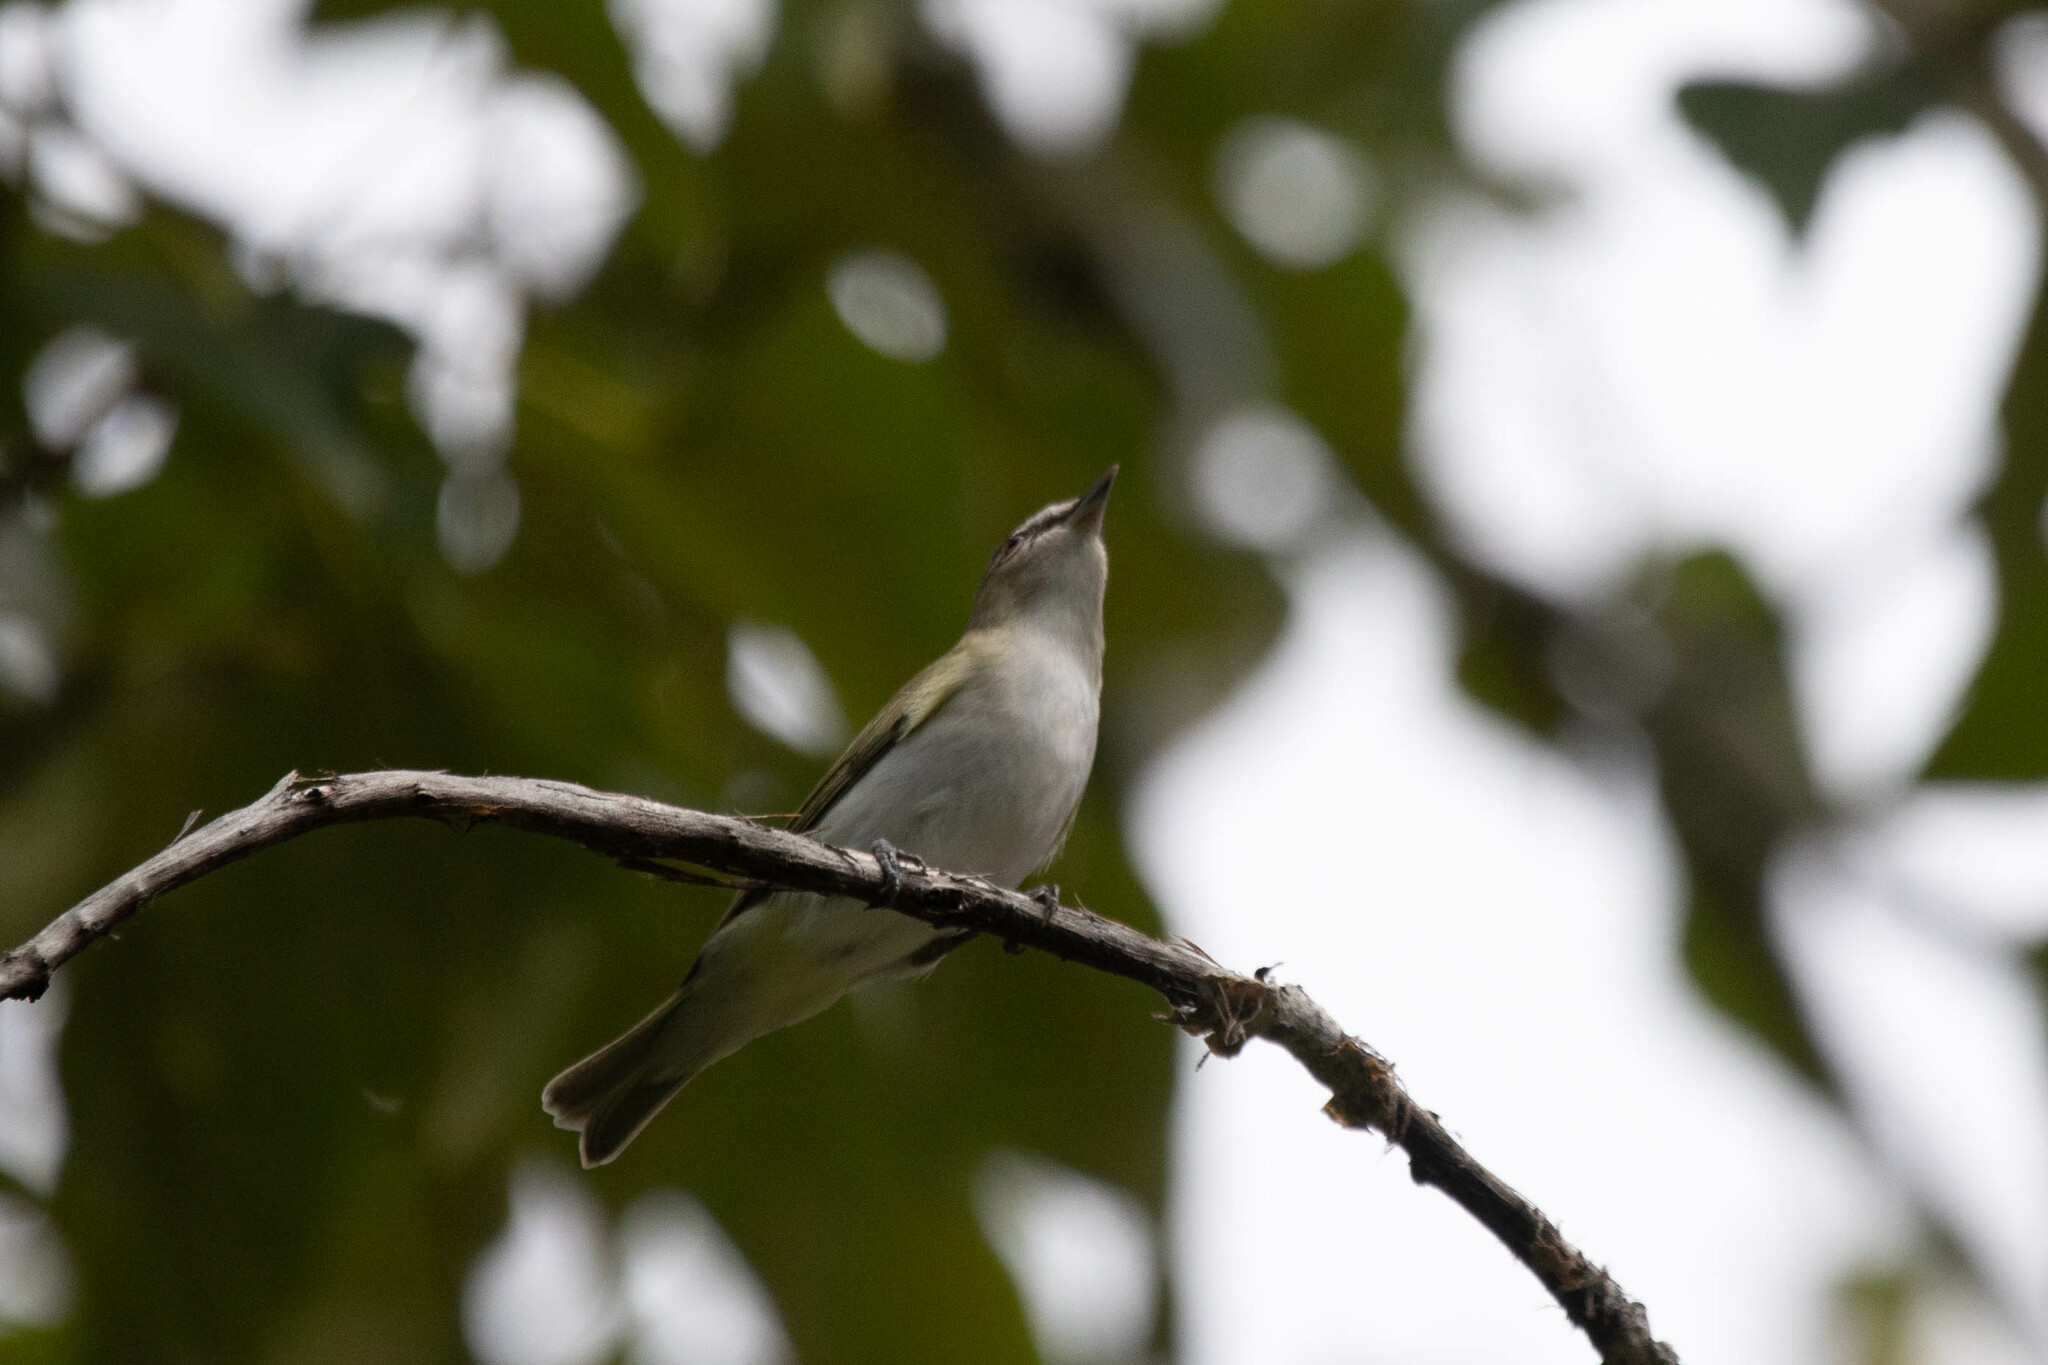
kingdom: Animalia
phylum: Chordata
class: Aves
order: Passeriformes
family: Vireonidae
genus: Vireo
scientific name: Vireo olivaceus
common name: Red-eyed vireo
